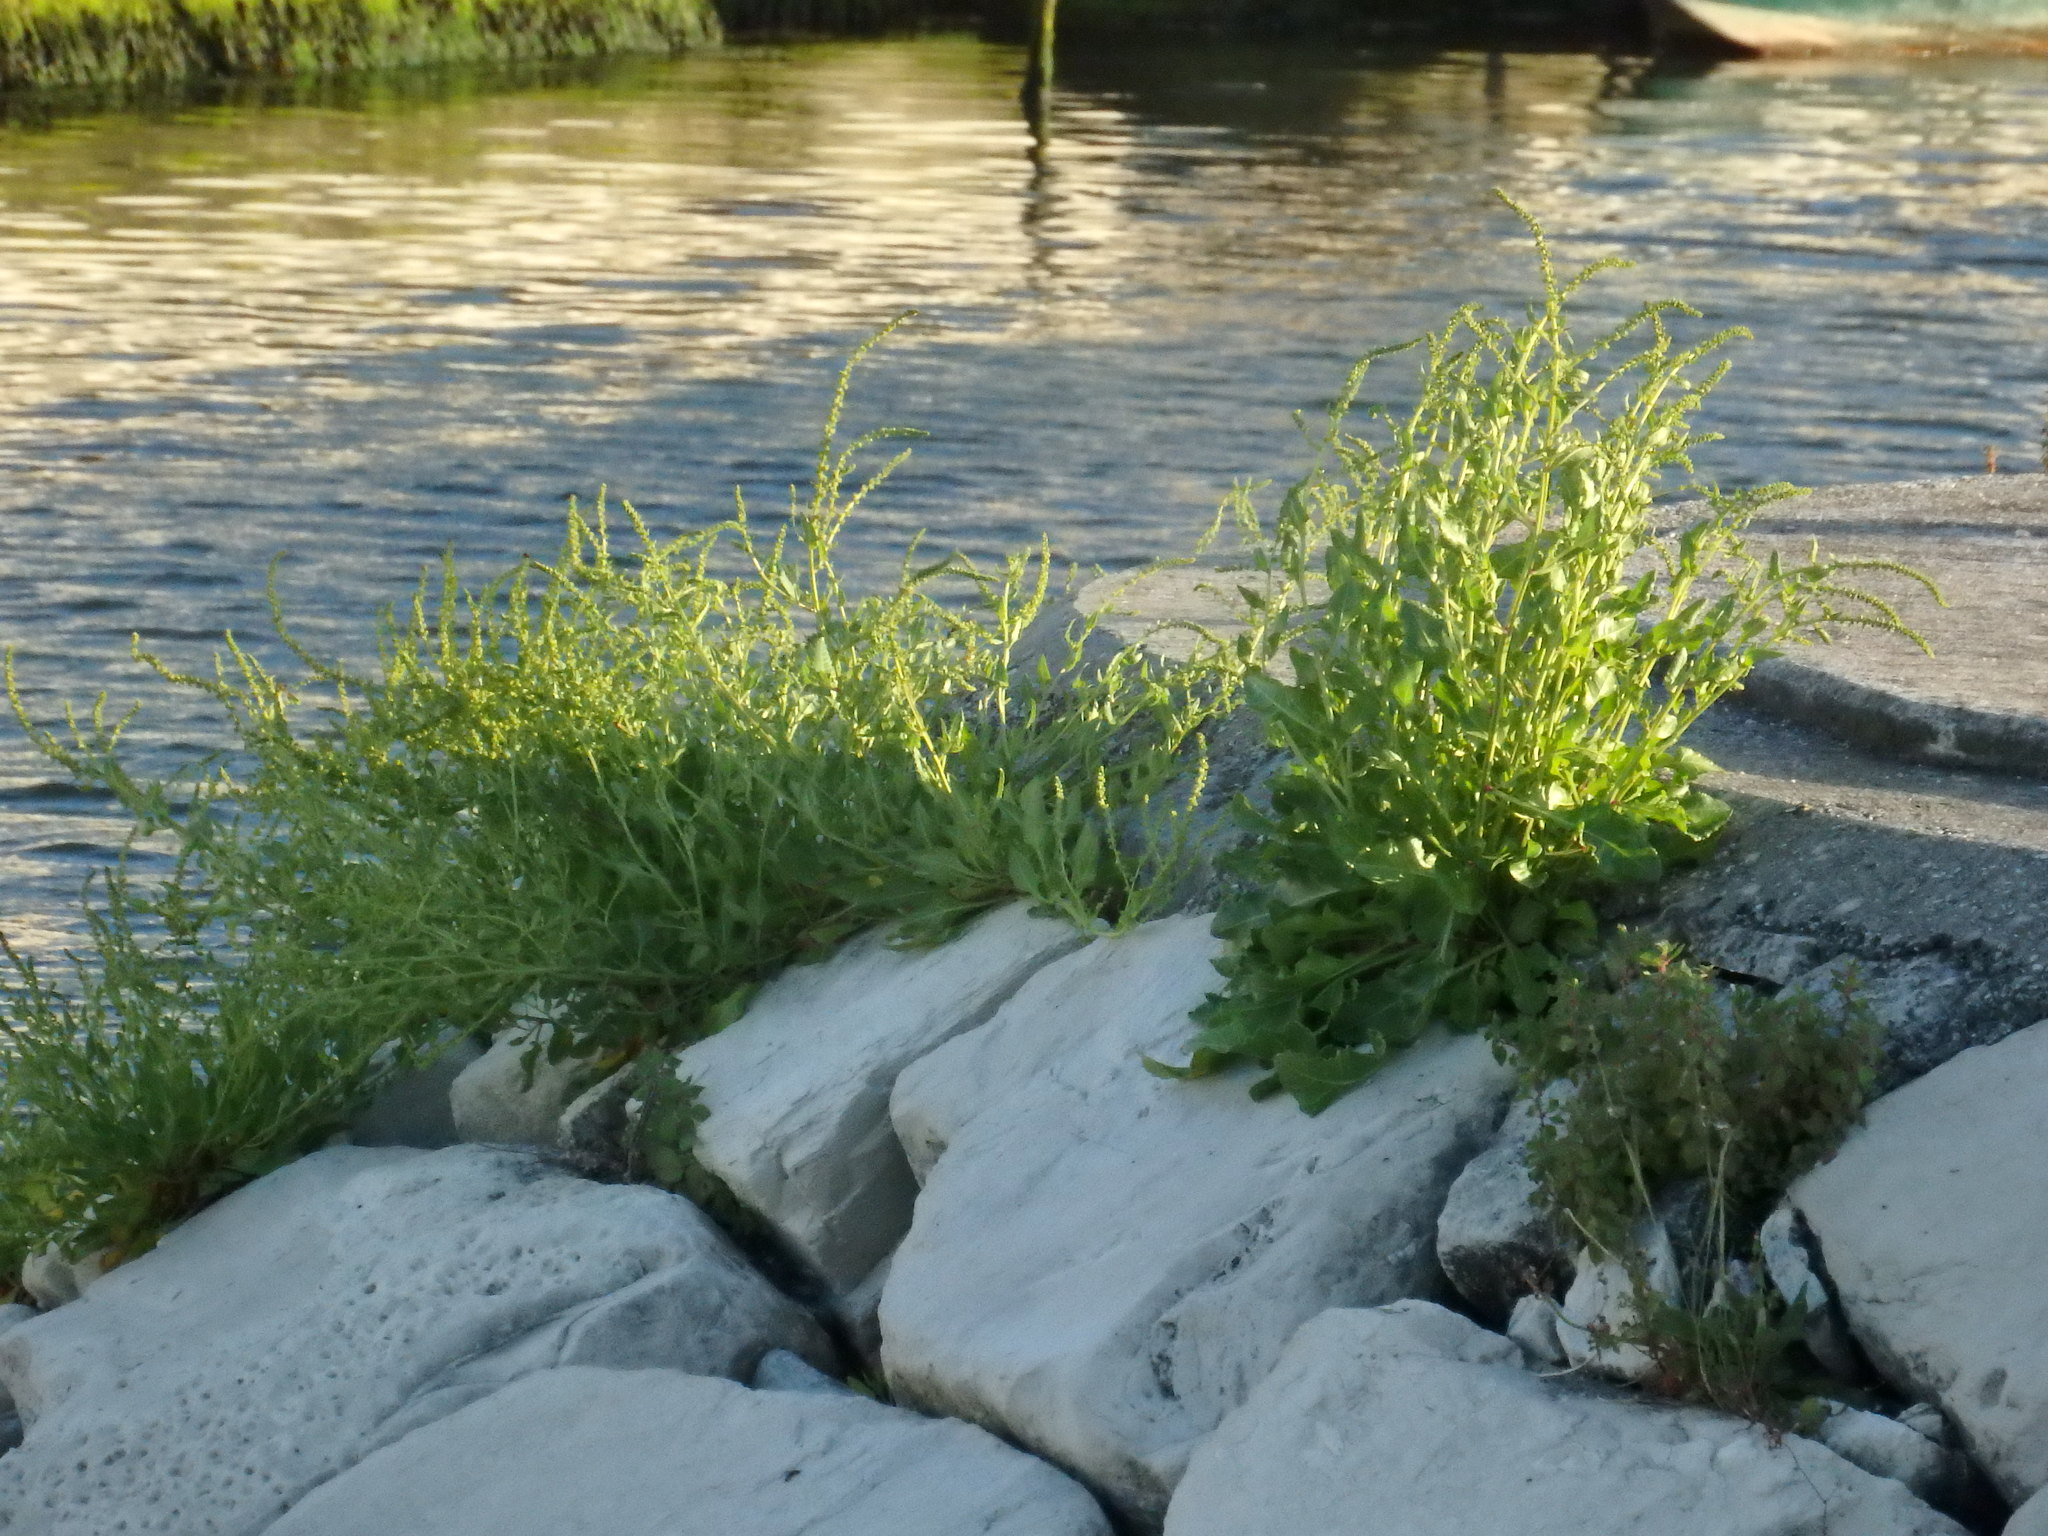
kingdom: Plantae
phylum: Tracheophyta
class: Magnoliopsida
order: Caryophyllales
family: Amaranthaceae
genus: Beta
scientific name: Beta vulgaris
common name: Beet
